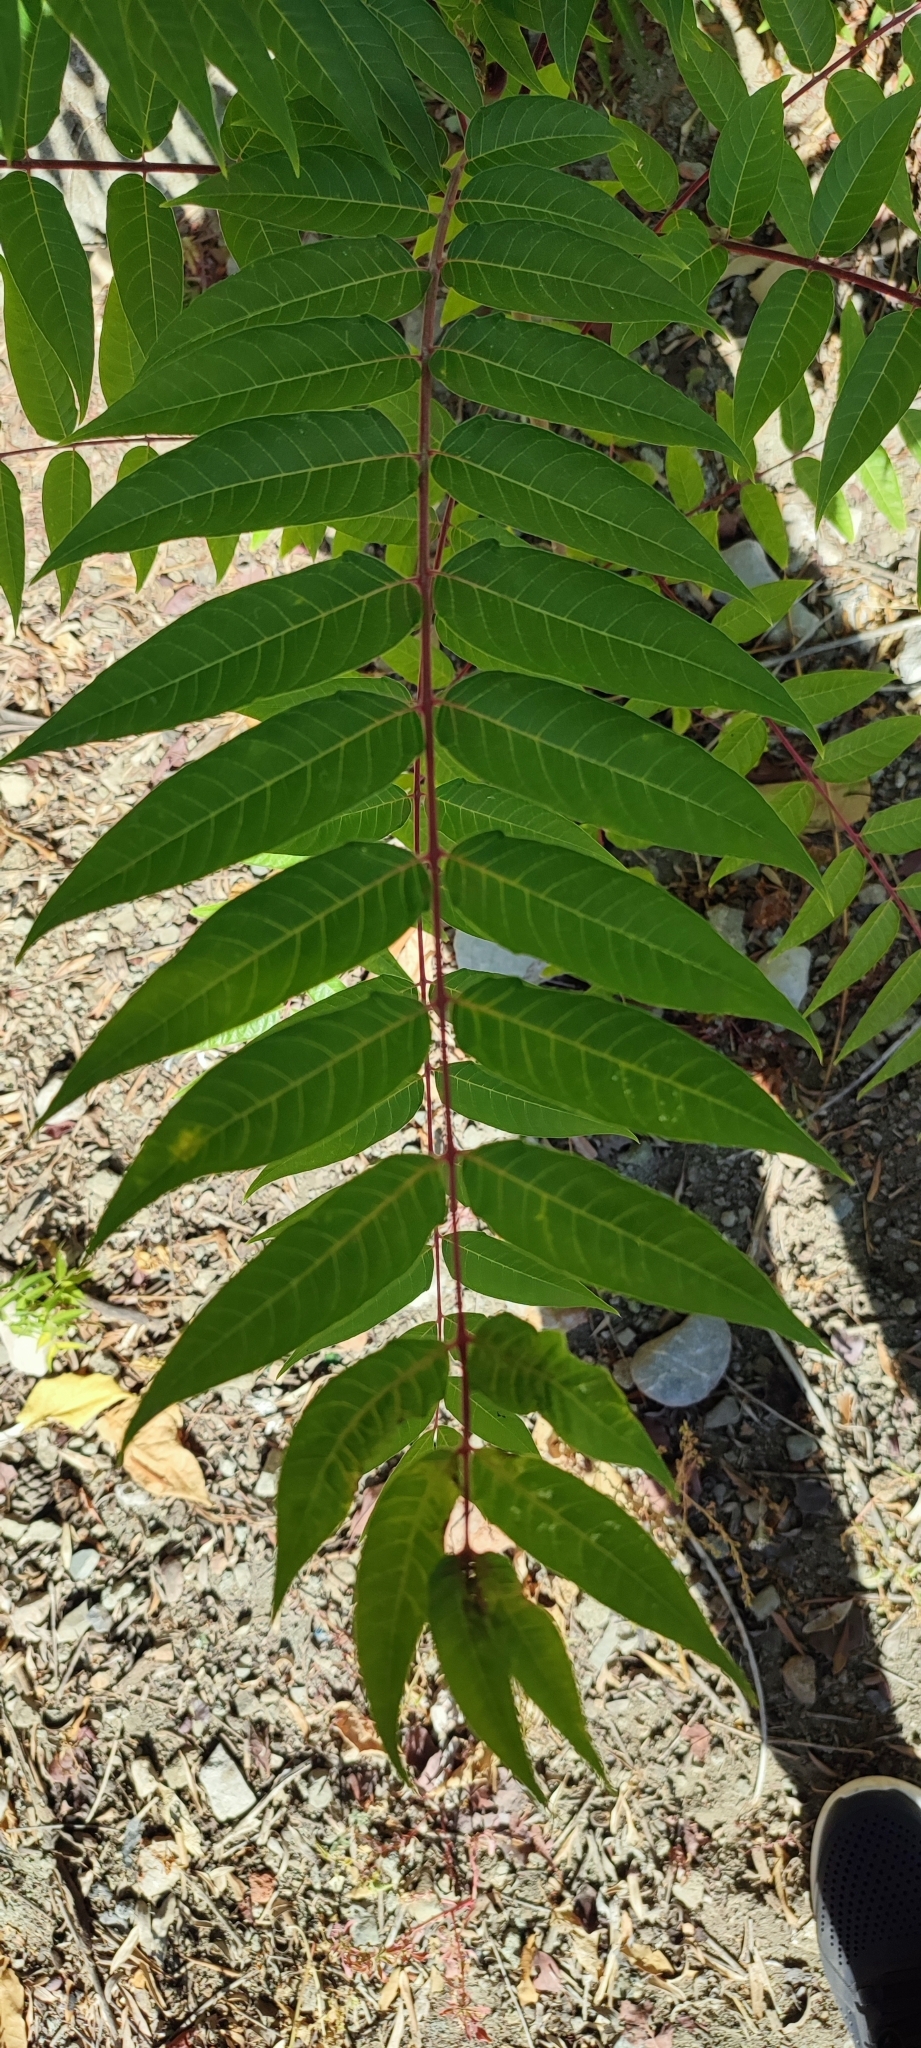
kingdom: Plantae
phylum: Tracheophyta
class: Magnoliopsida
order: Sapindales
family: Simaroubaceae
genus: Ailanthus
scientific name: Ailanthus altissima
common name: Tree-of-heaven
